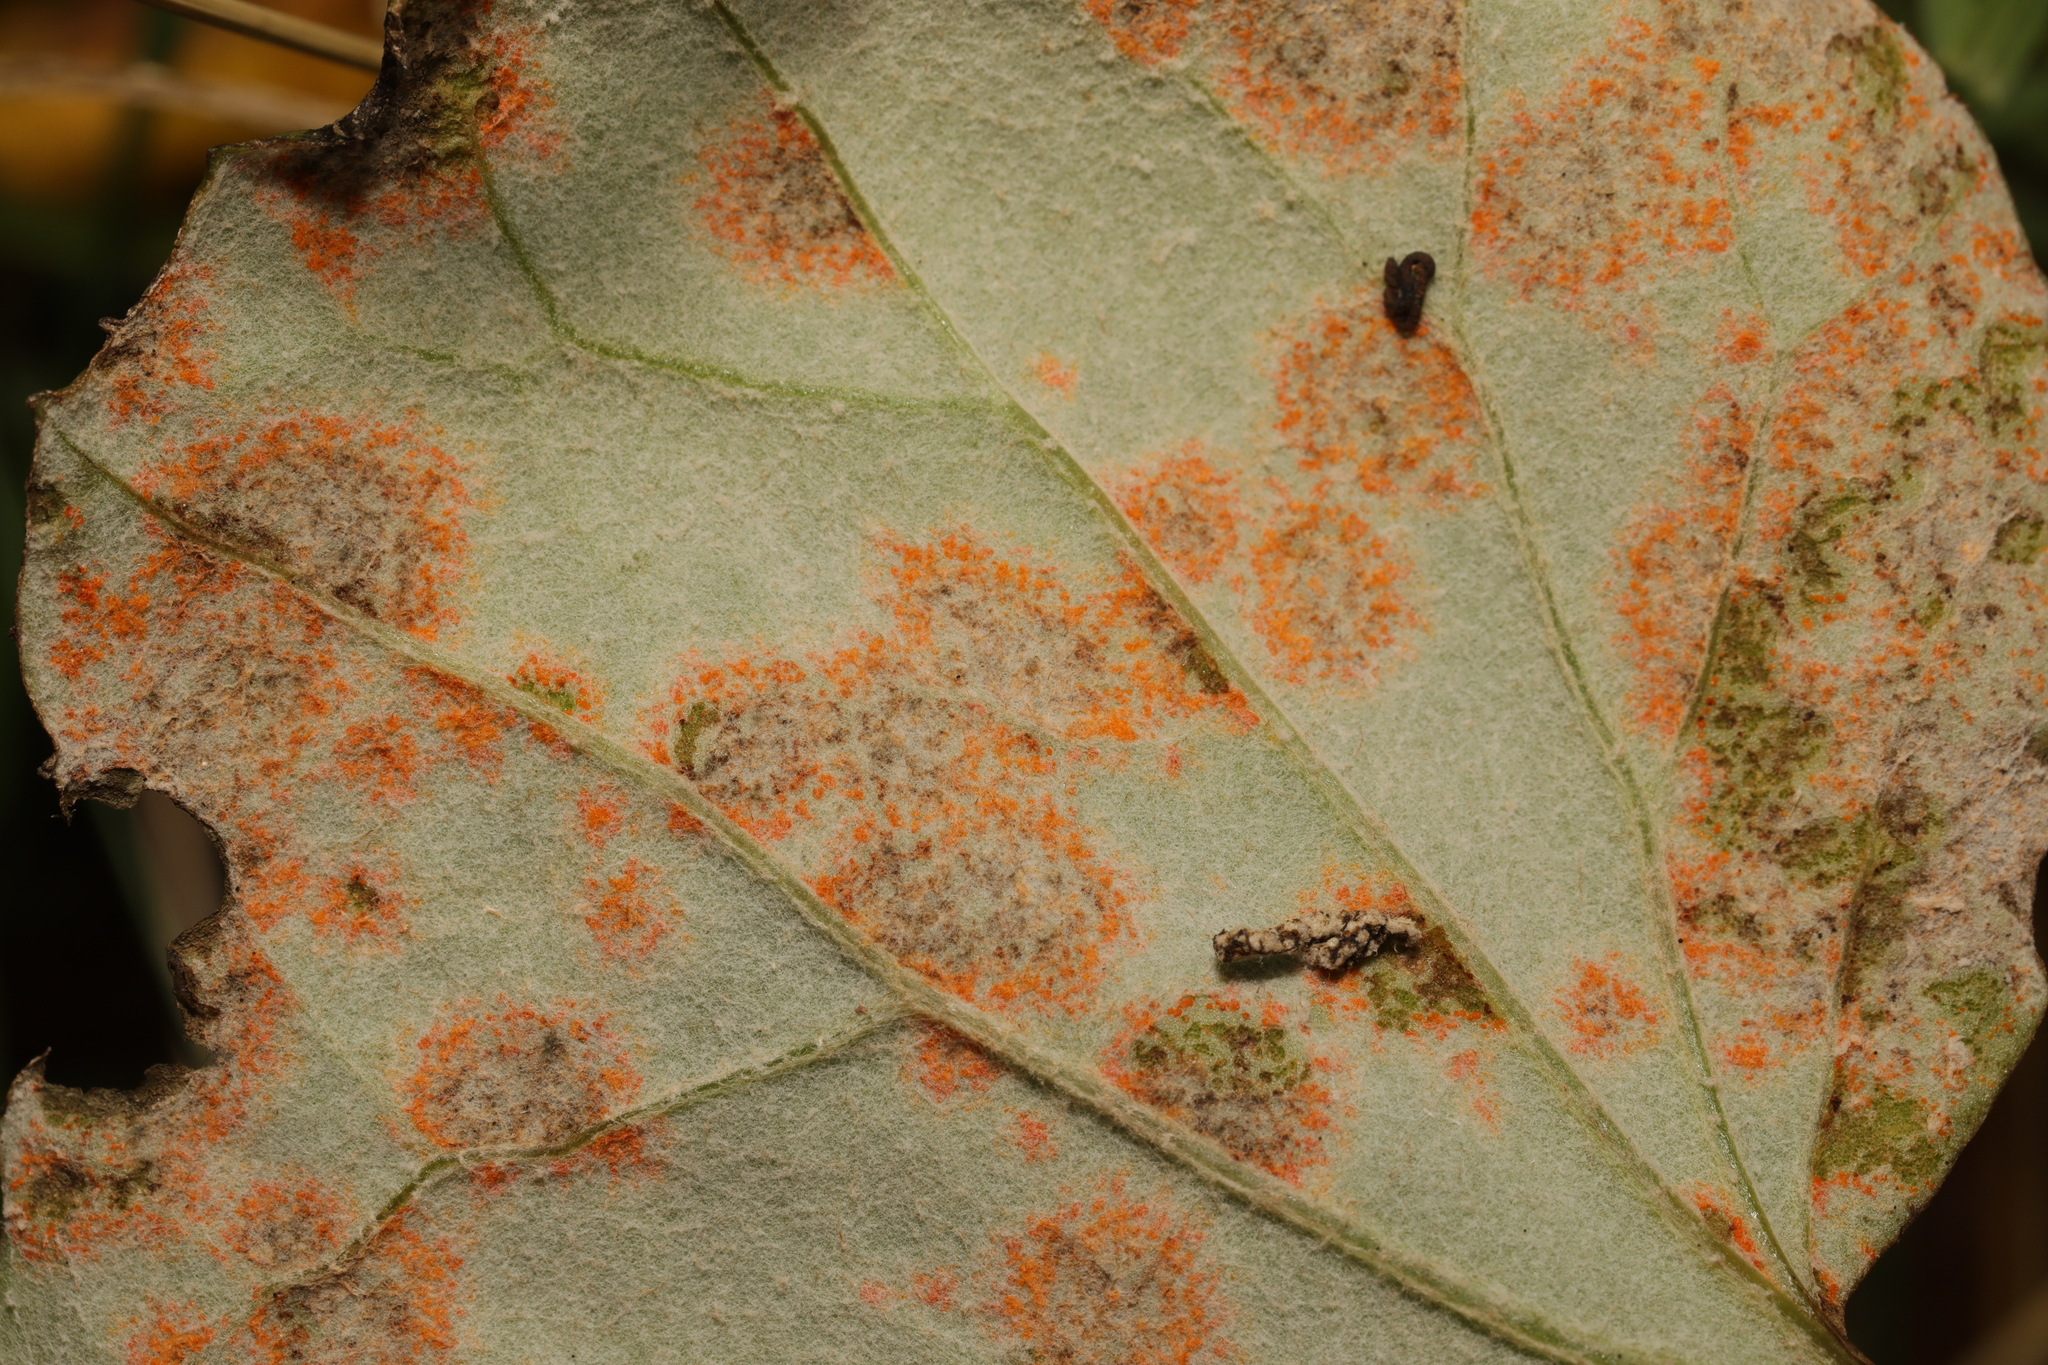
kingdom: Fungi
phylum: Basidiomycota
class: Pucciniomycetes
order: Pucciniales
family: Coleosporiaceae
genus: Coleosporium
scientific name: Coleosporium tussilaginis
